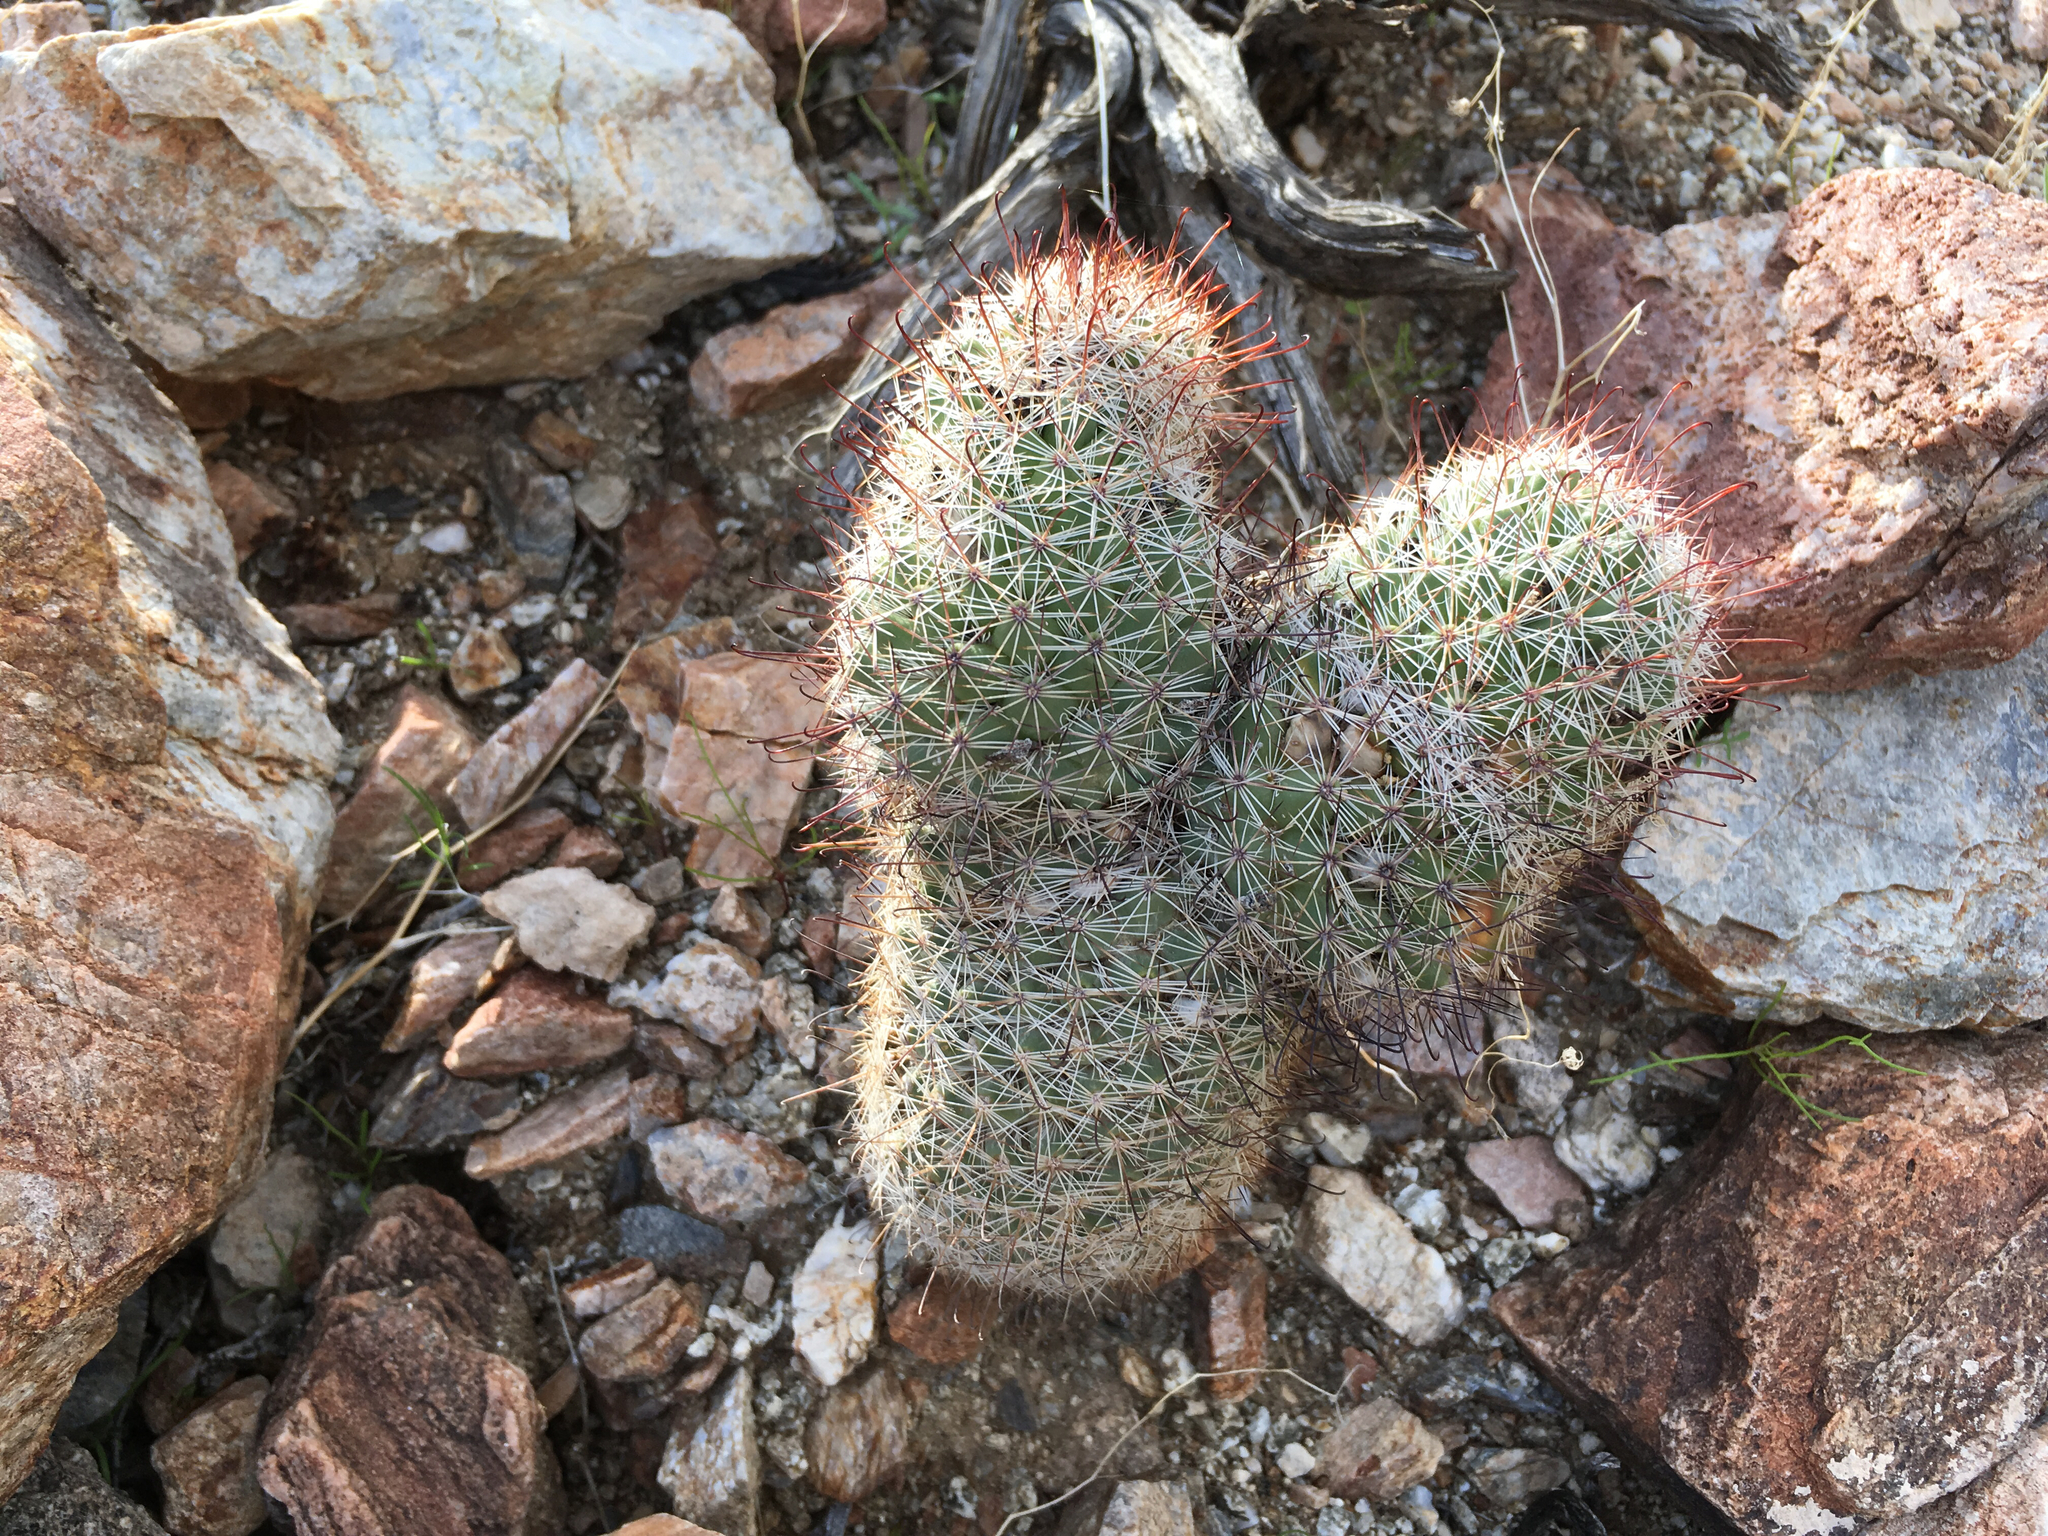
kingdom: Plantae
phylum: Tracheophyta
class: Magnoliopsida
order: Caryophyllales
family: Cactaceae
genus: Cochemiea
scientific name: Cochemiea dioica
